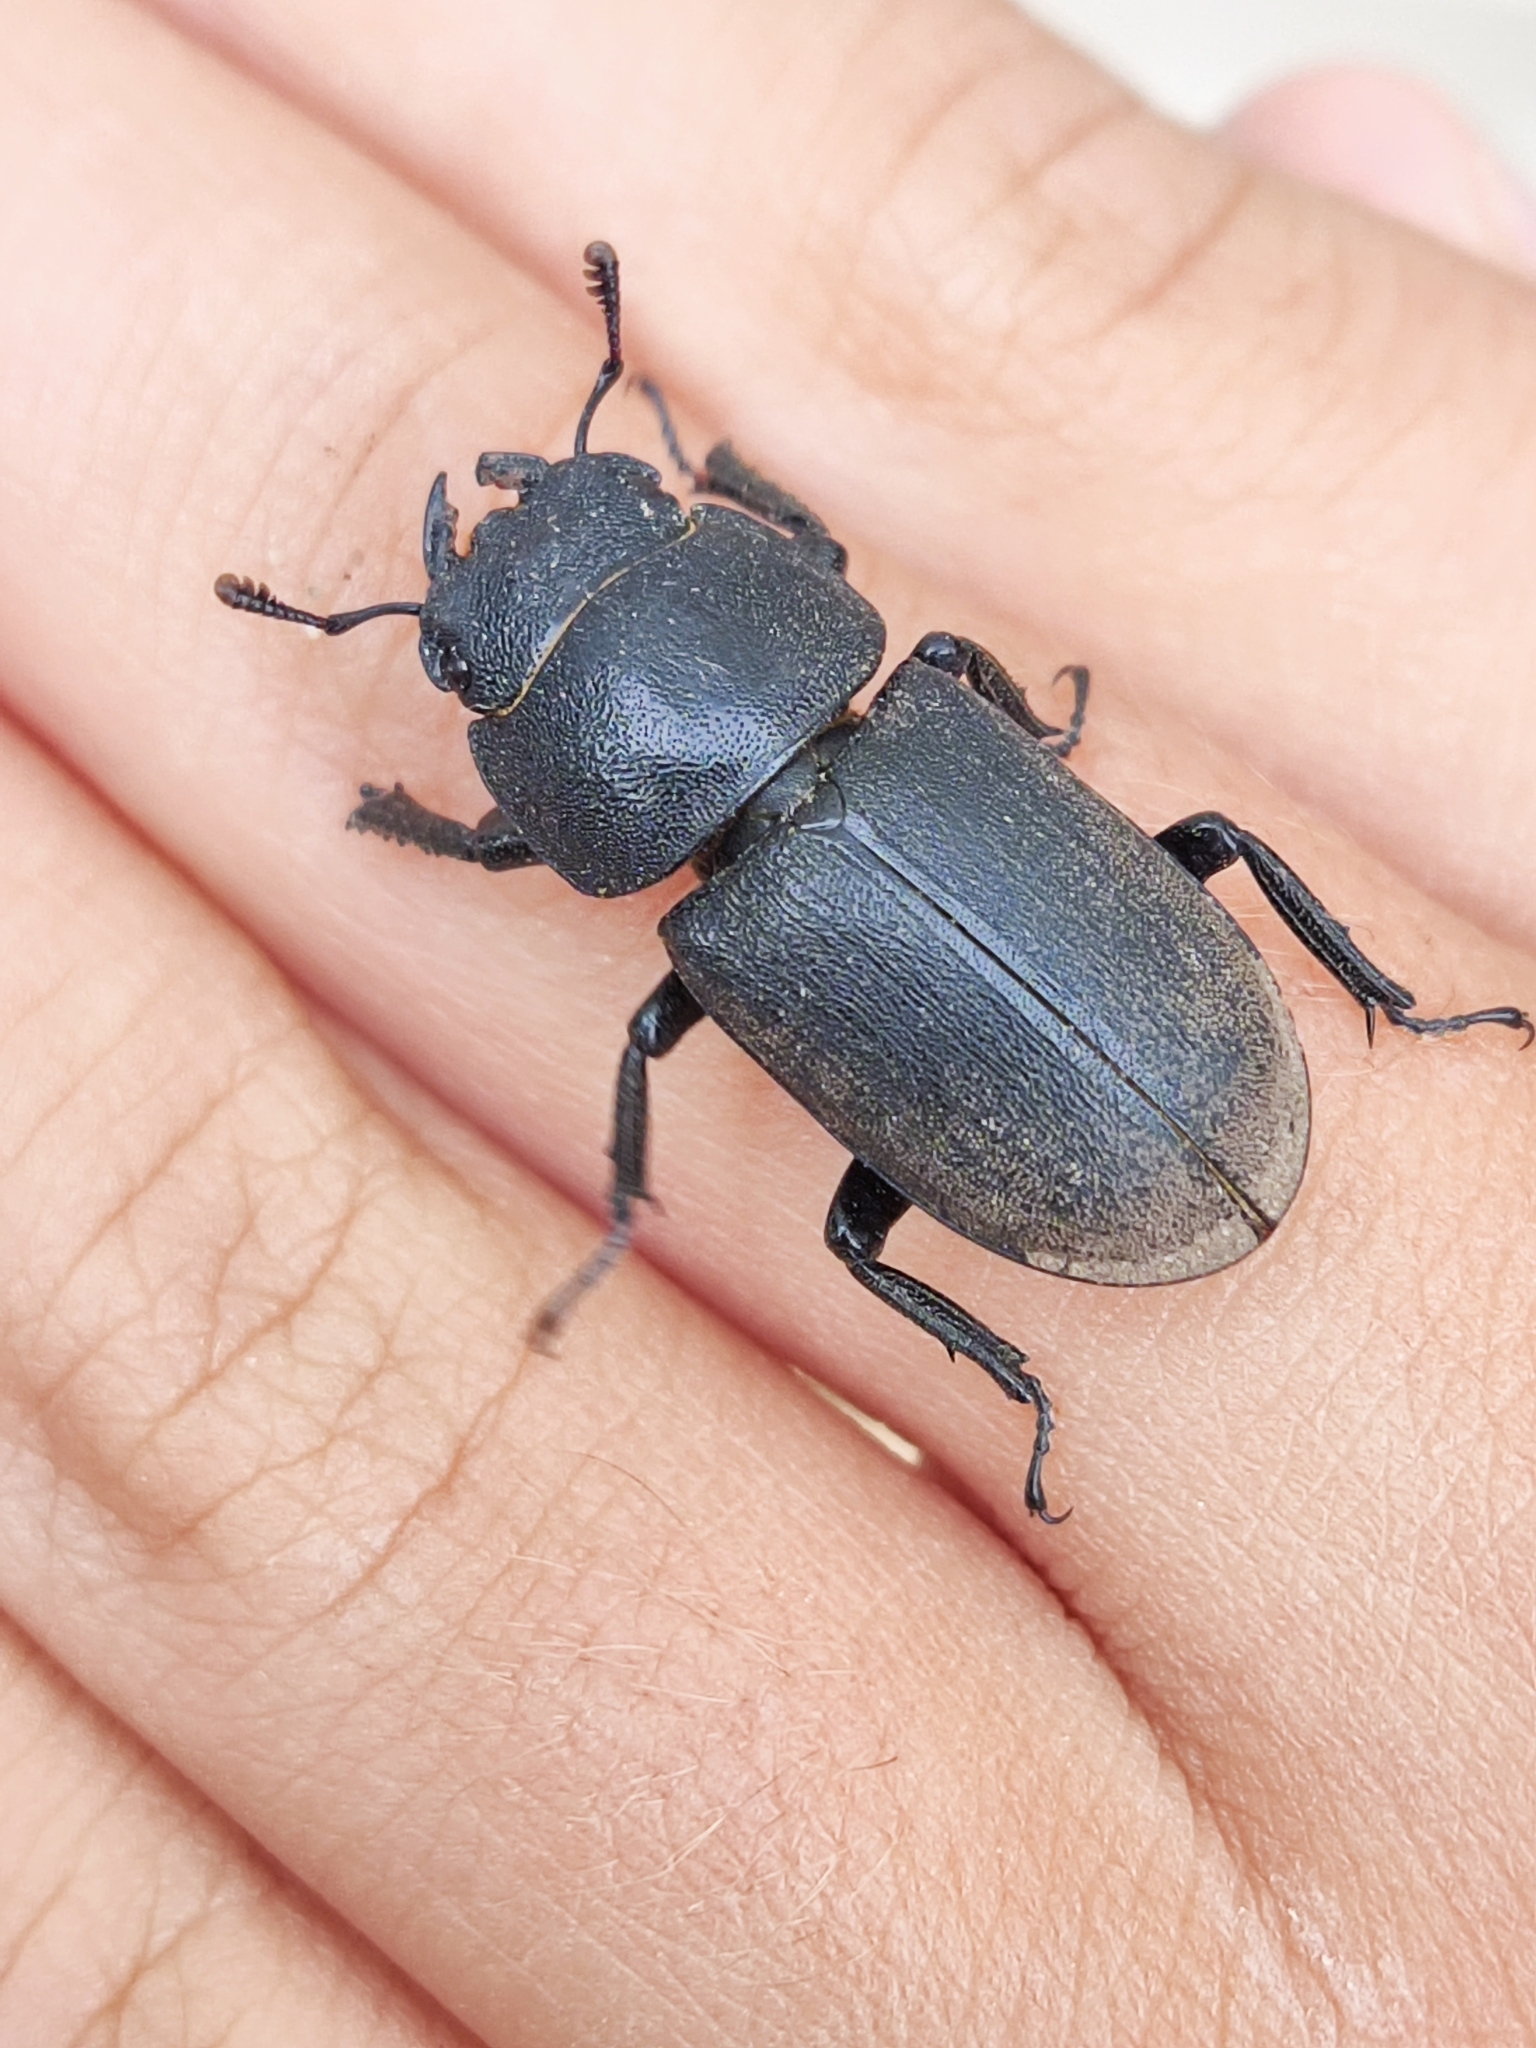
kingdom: Animalia
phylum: Arthropoda
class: Insecta
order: Coleoptera
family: Lucanidae
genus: Dorcus
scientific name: Dorcus parallelipipedus
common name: Lesser stag beetle
